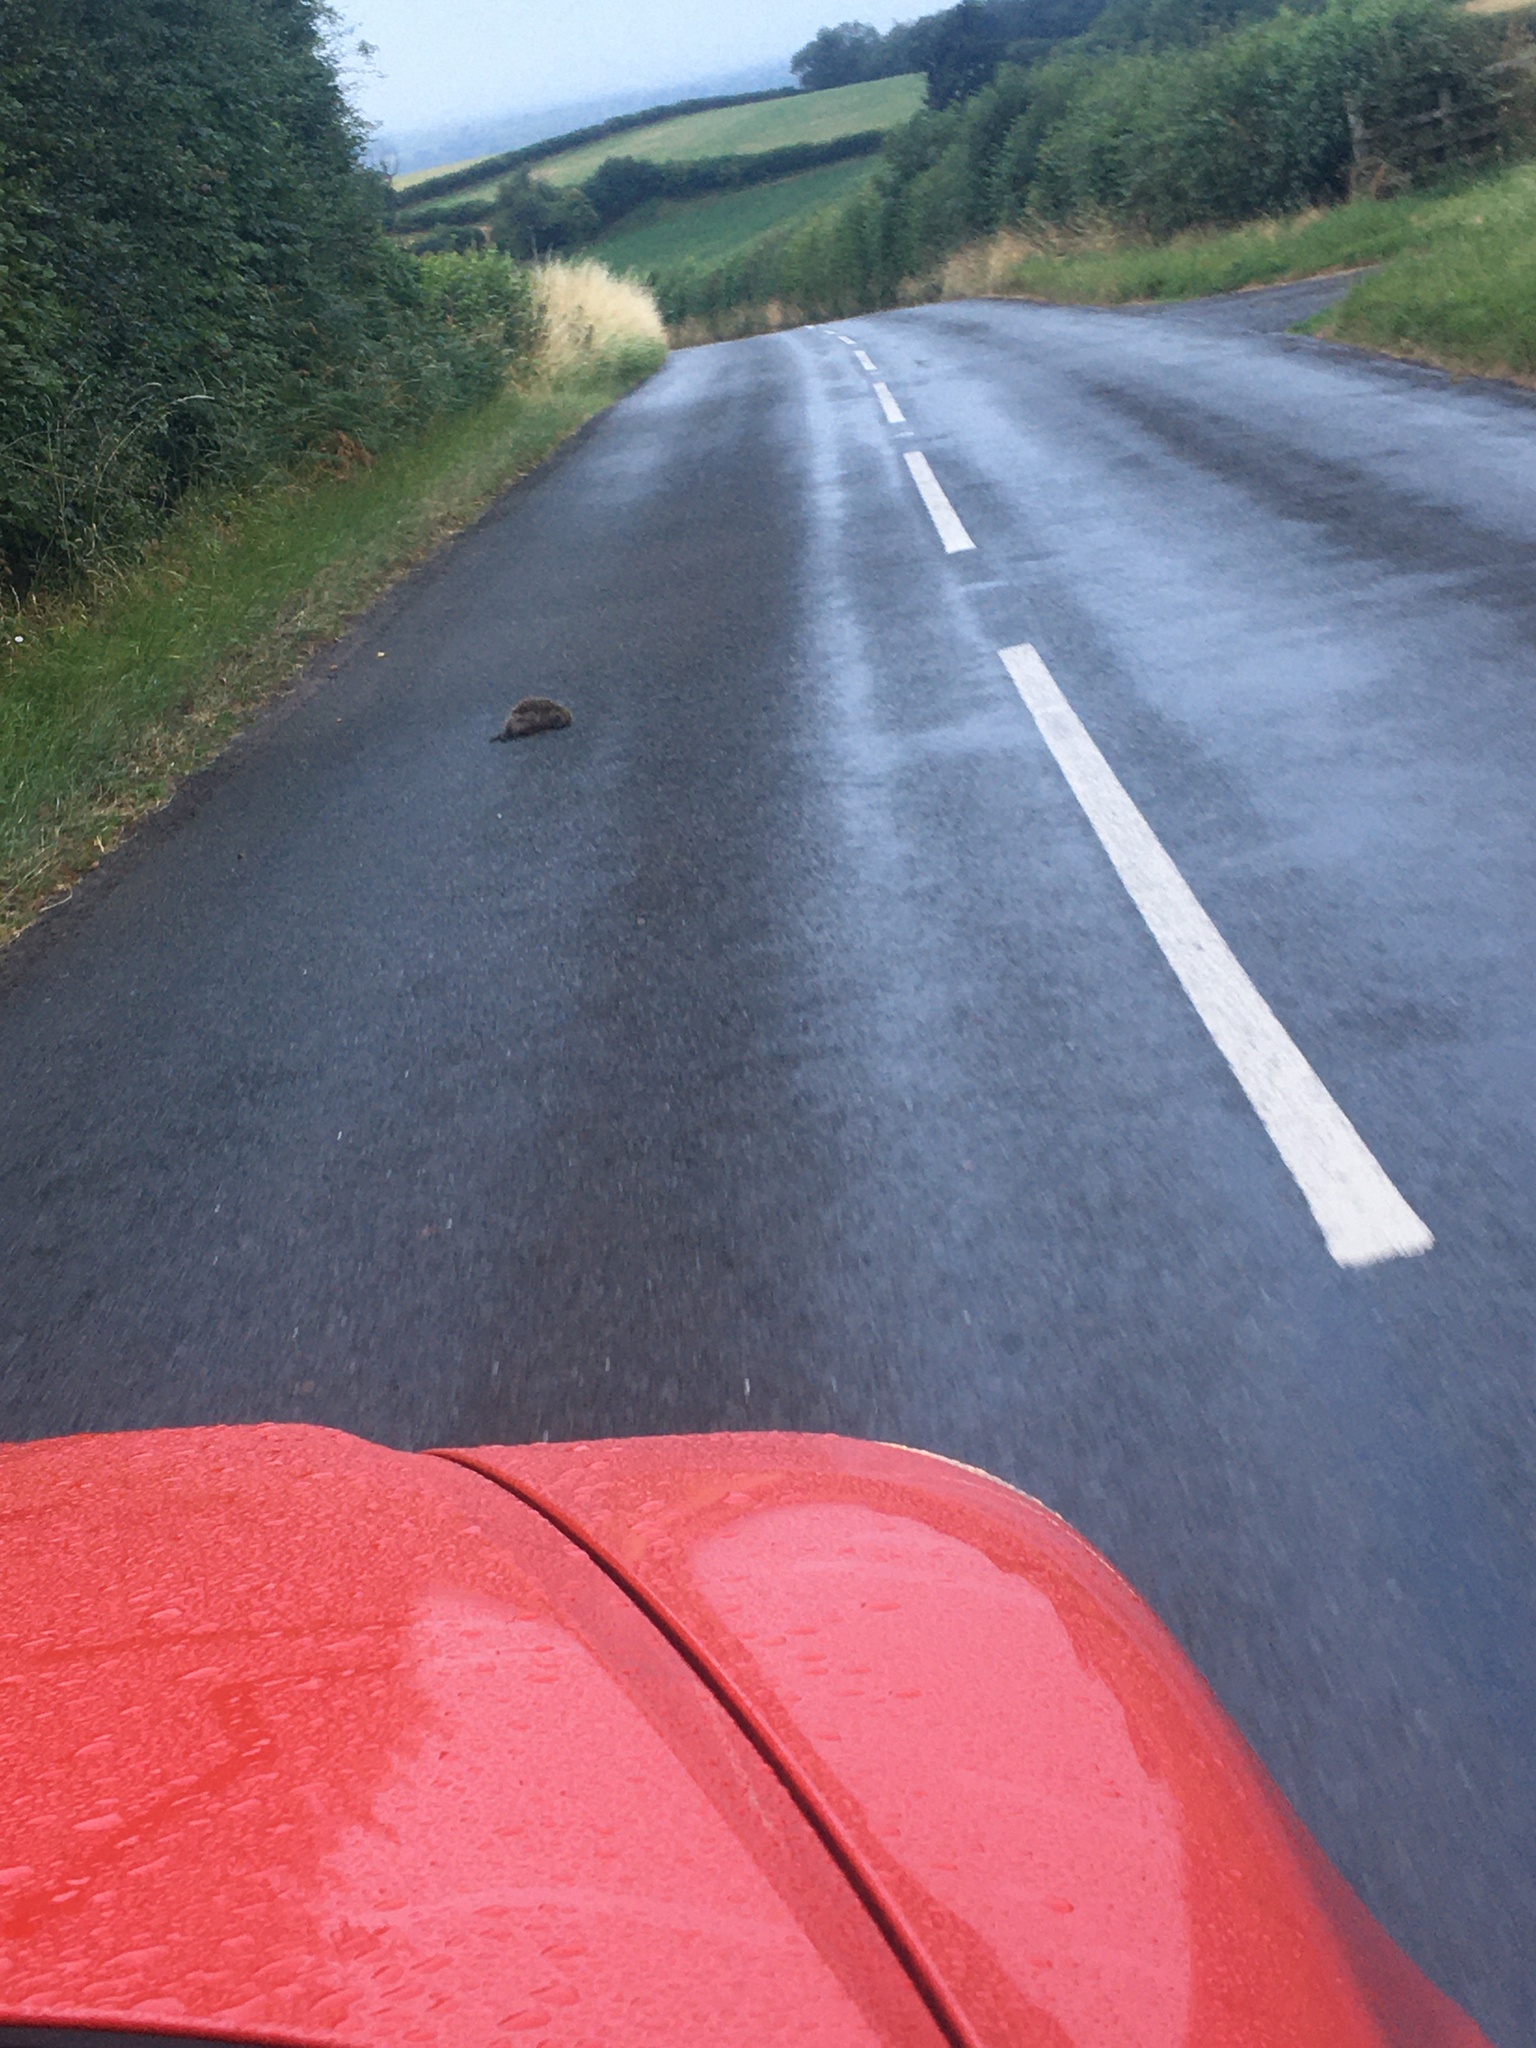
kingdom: Animalia
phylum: Chordata
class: Mammalia
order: Erinaceomorpha
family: Erinaceidae
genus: Erinaceus
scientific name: Erinaceus europaeus
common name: West european hedgehog
